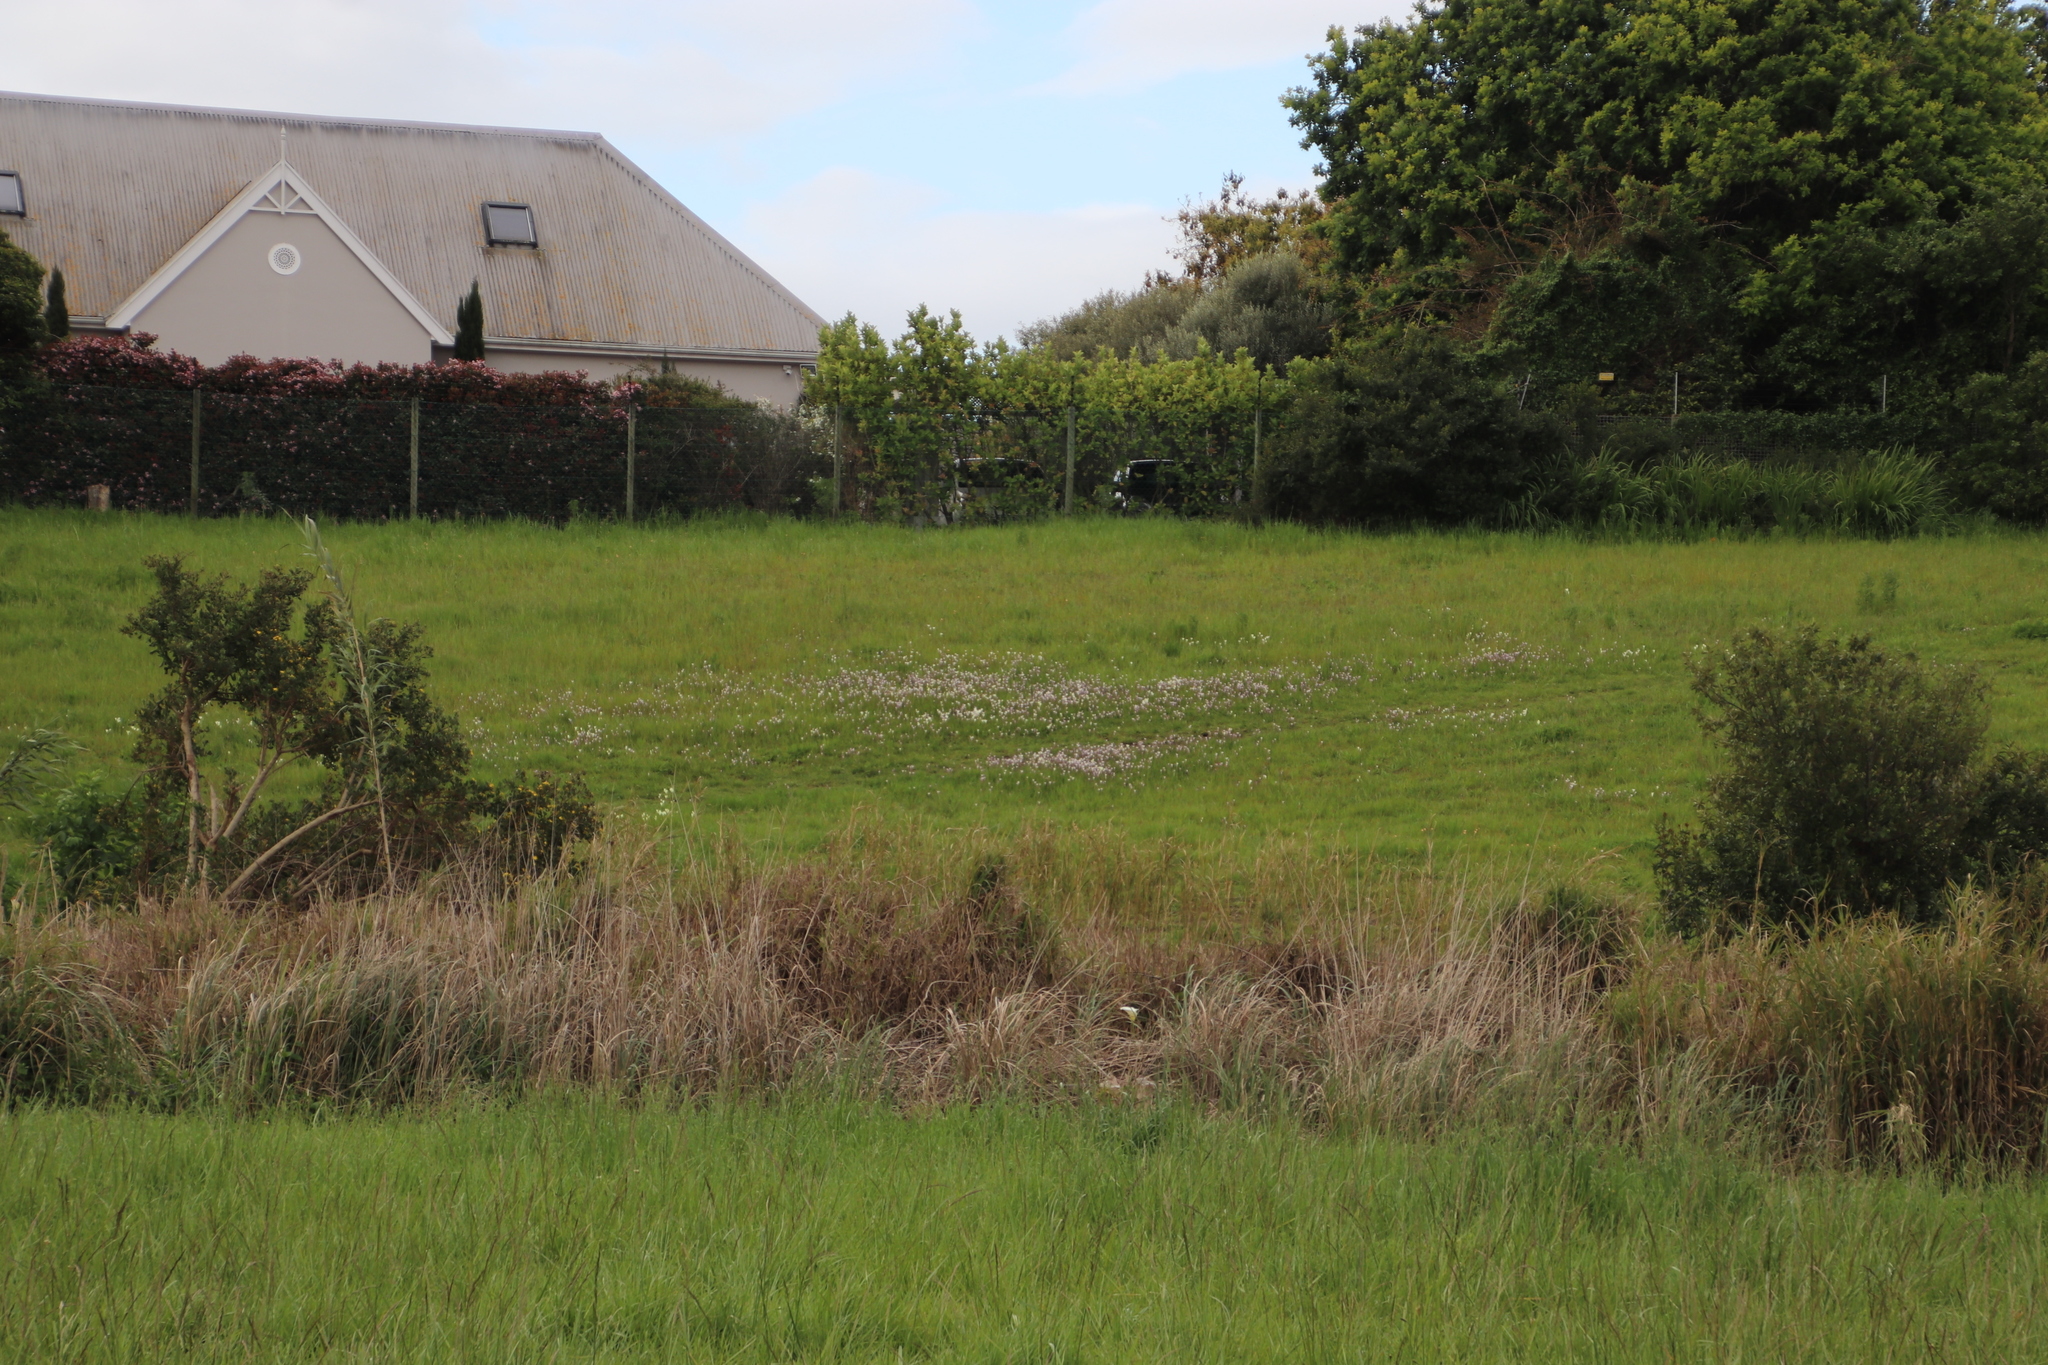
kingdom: Plantae
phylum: Tracheophyta
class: Liliopsida
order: Asparagales
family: Iridaceae
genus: Sparaxis
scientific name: Sparaxis bulbifera
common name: Harlequin-flower
